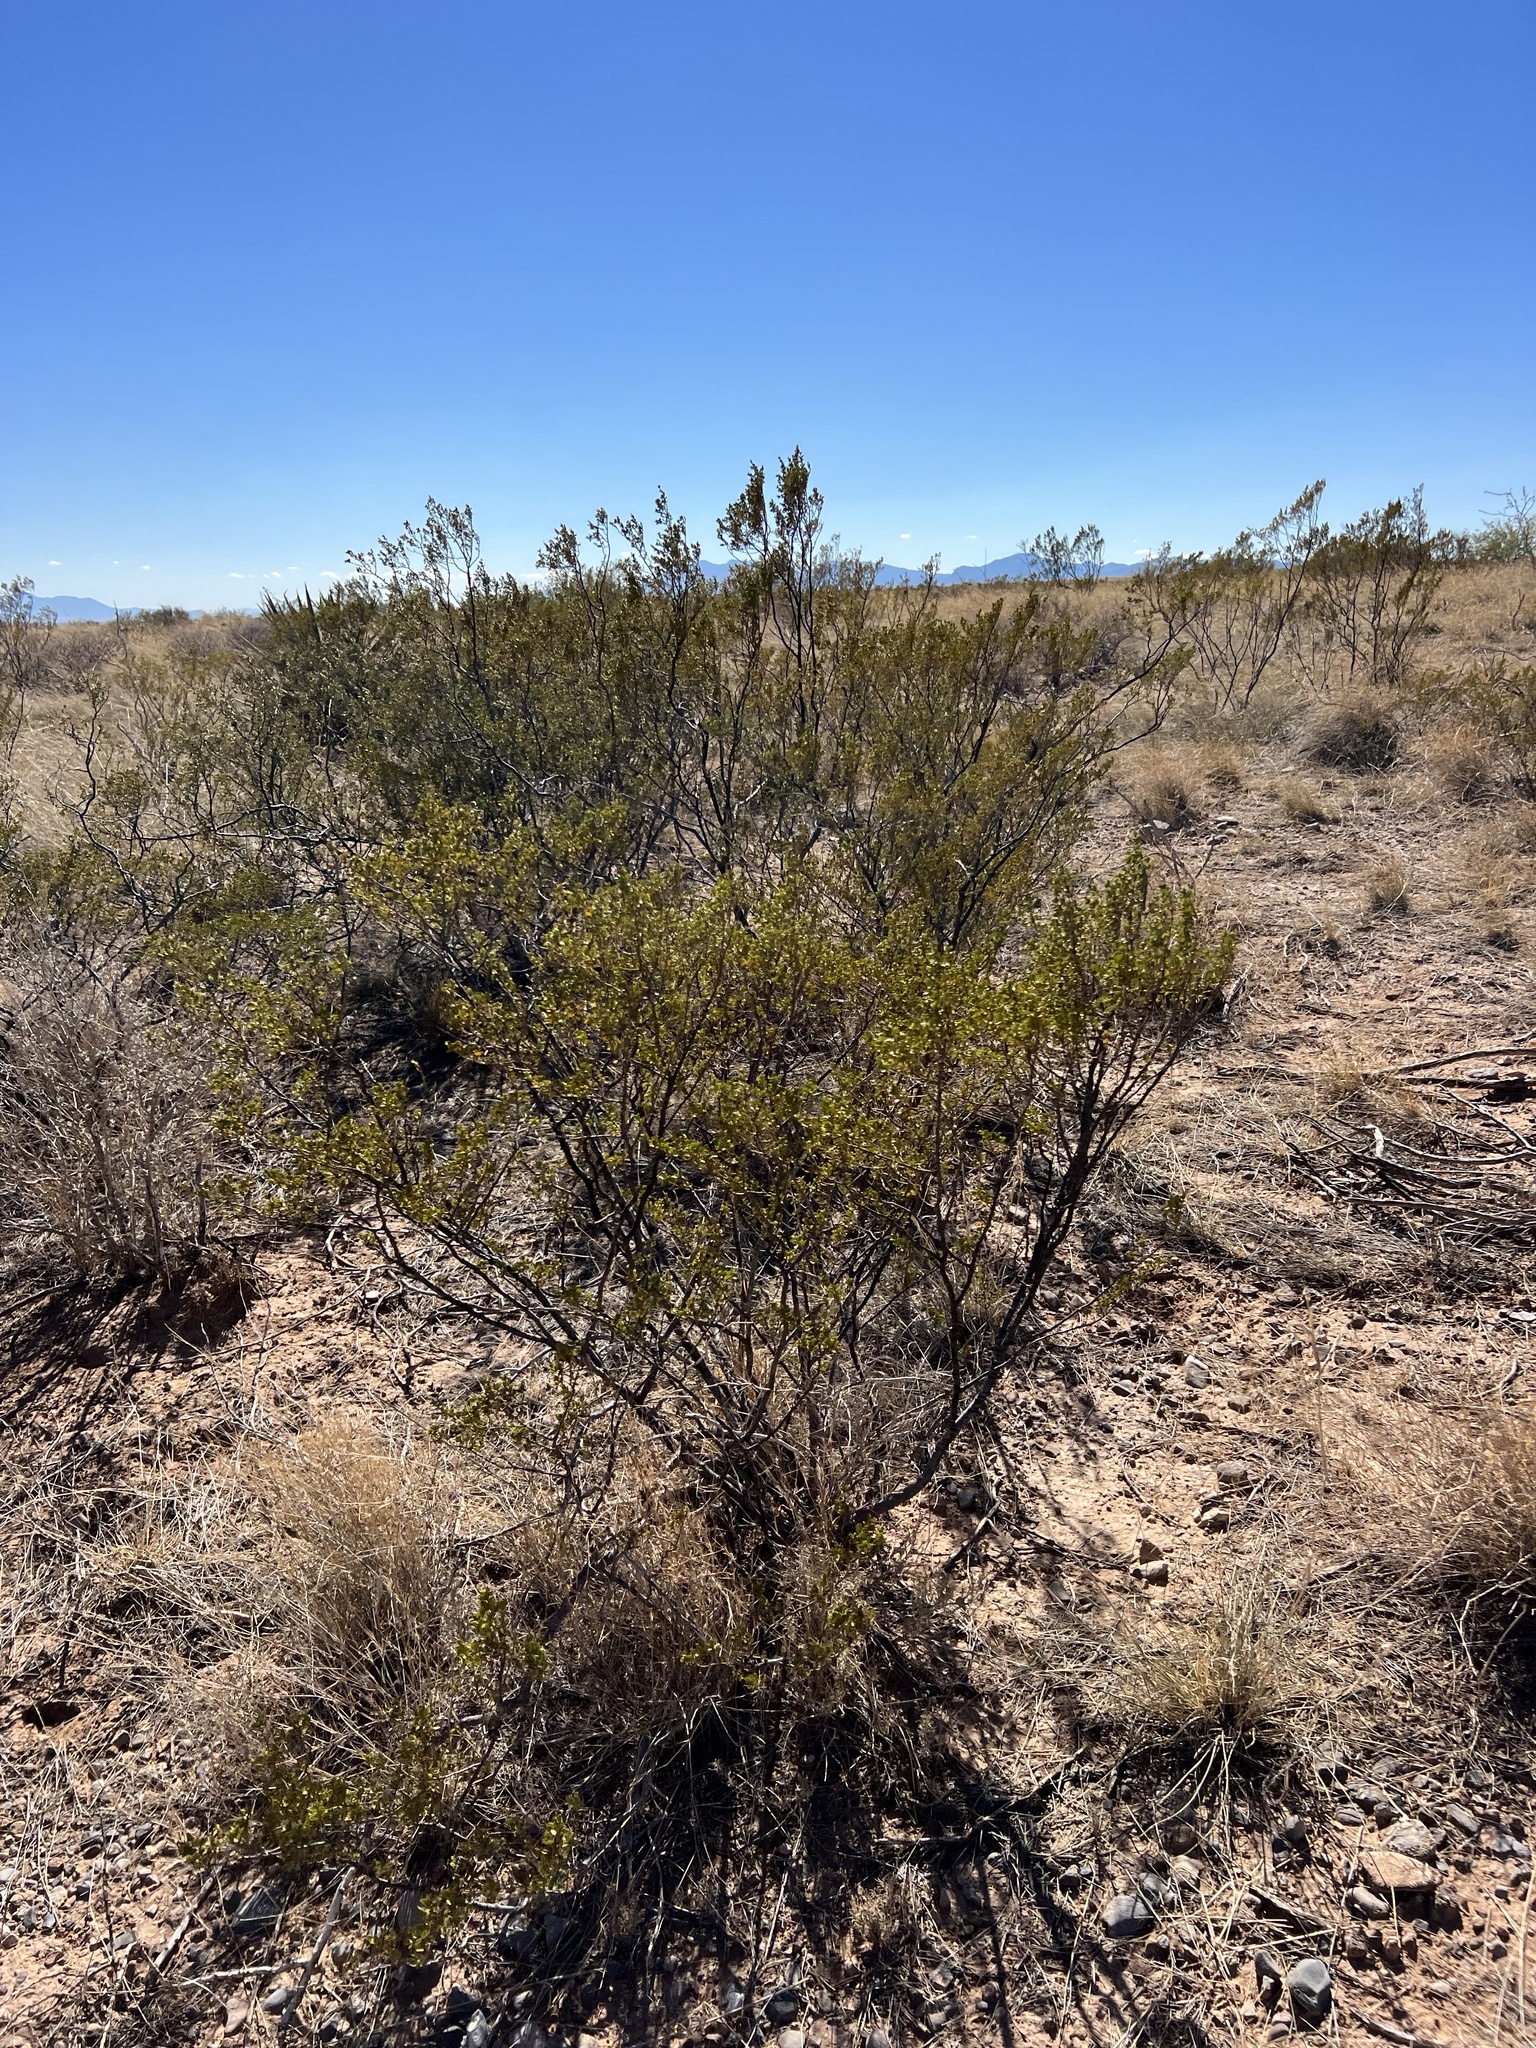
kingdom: Plantae
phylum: Tracheophyta
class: Magnoliopsida
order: Zygophyllales
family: Zygophyllaceae
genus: Larrea
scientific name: Larrea tridentata
